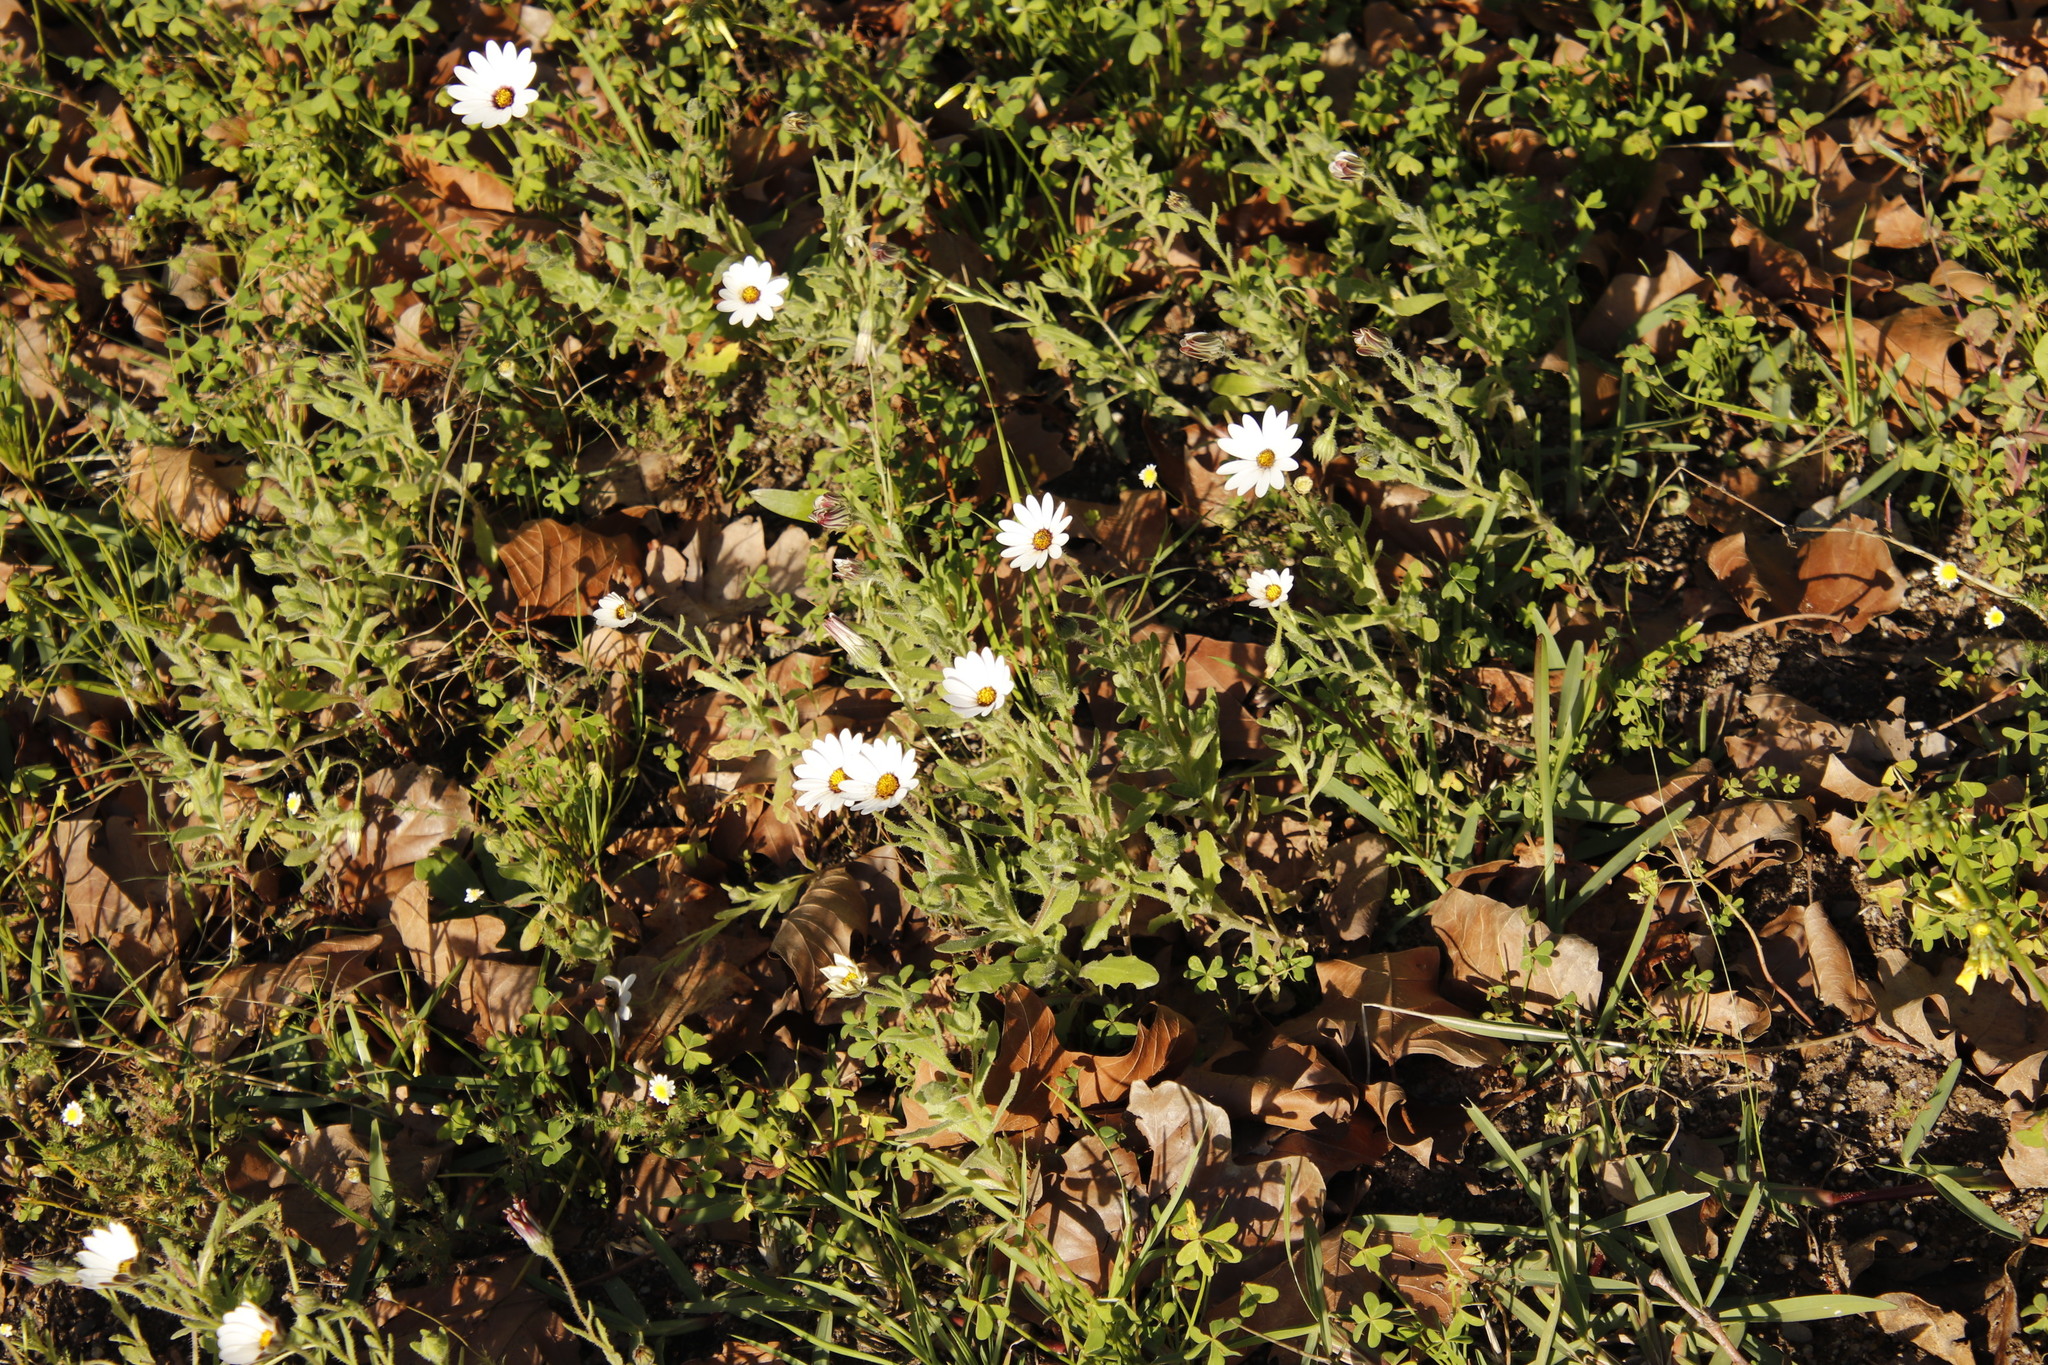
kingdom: Plantae
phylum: Tracheophyta
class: Magnoliopsida
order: Asterales
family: Asteraceae
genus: Dimorphotheca
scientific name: Dimorphotheca pluvialis
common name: Weather prophet
